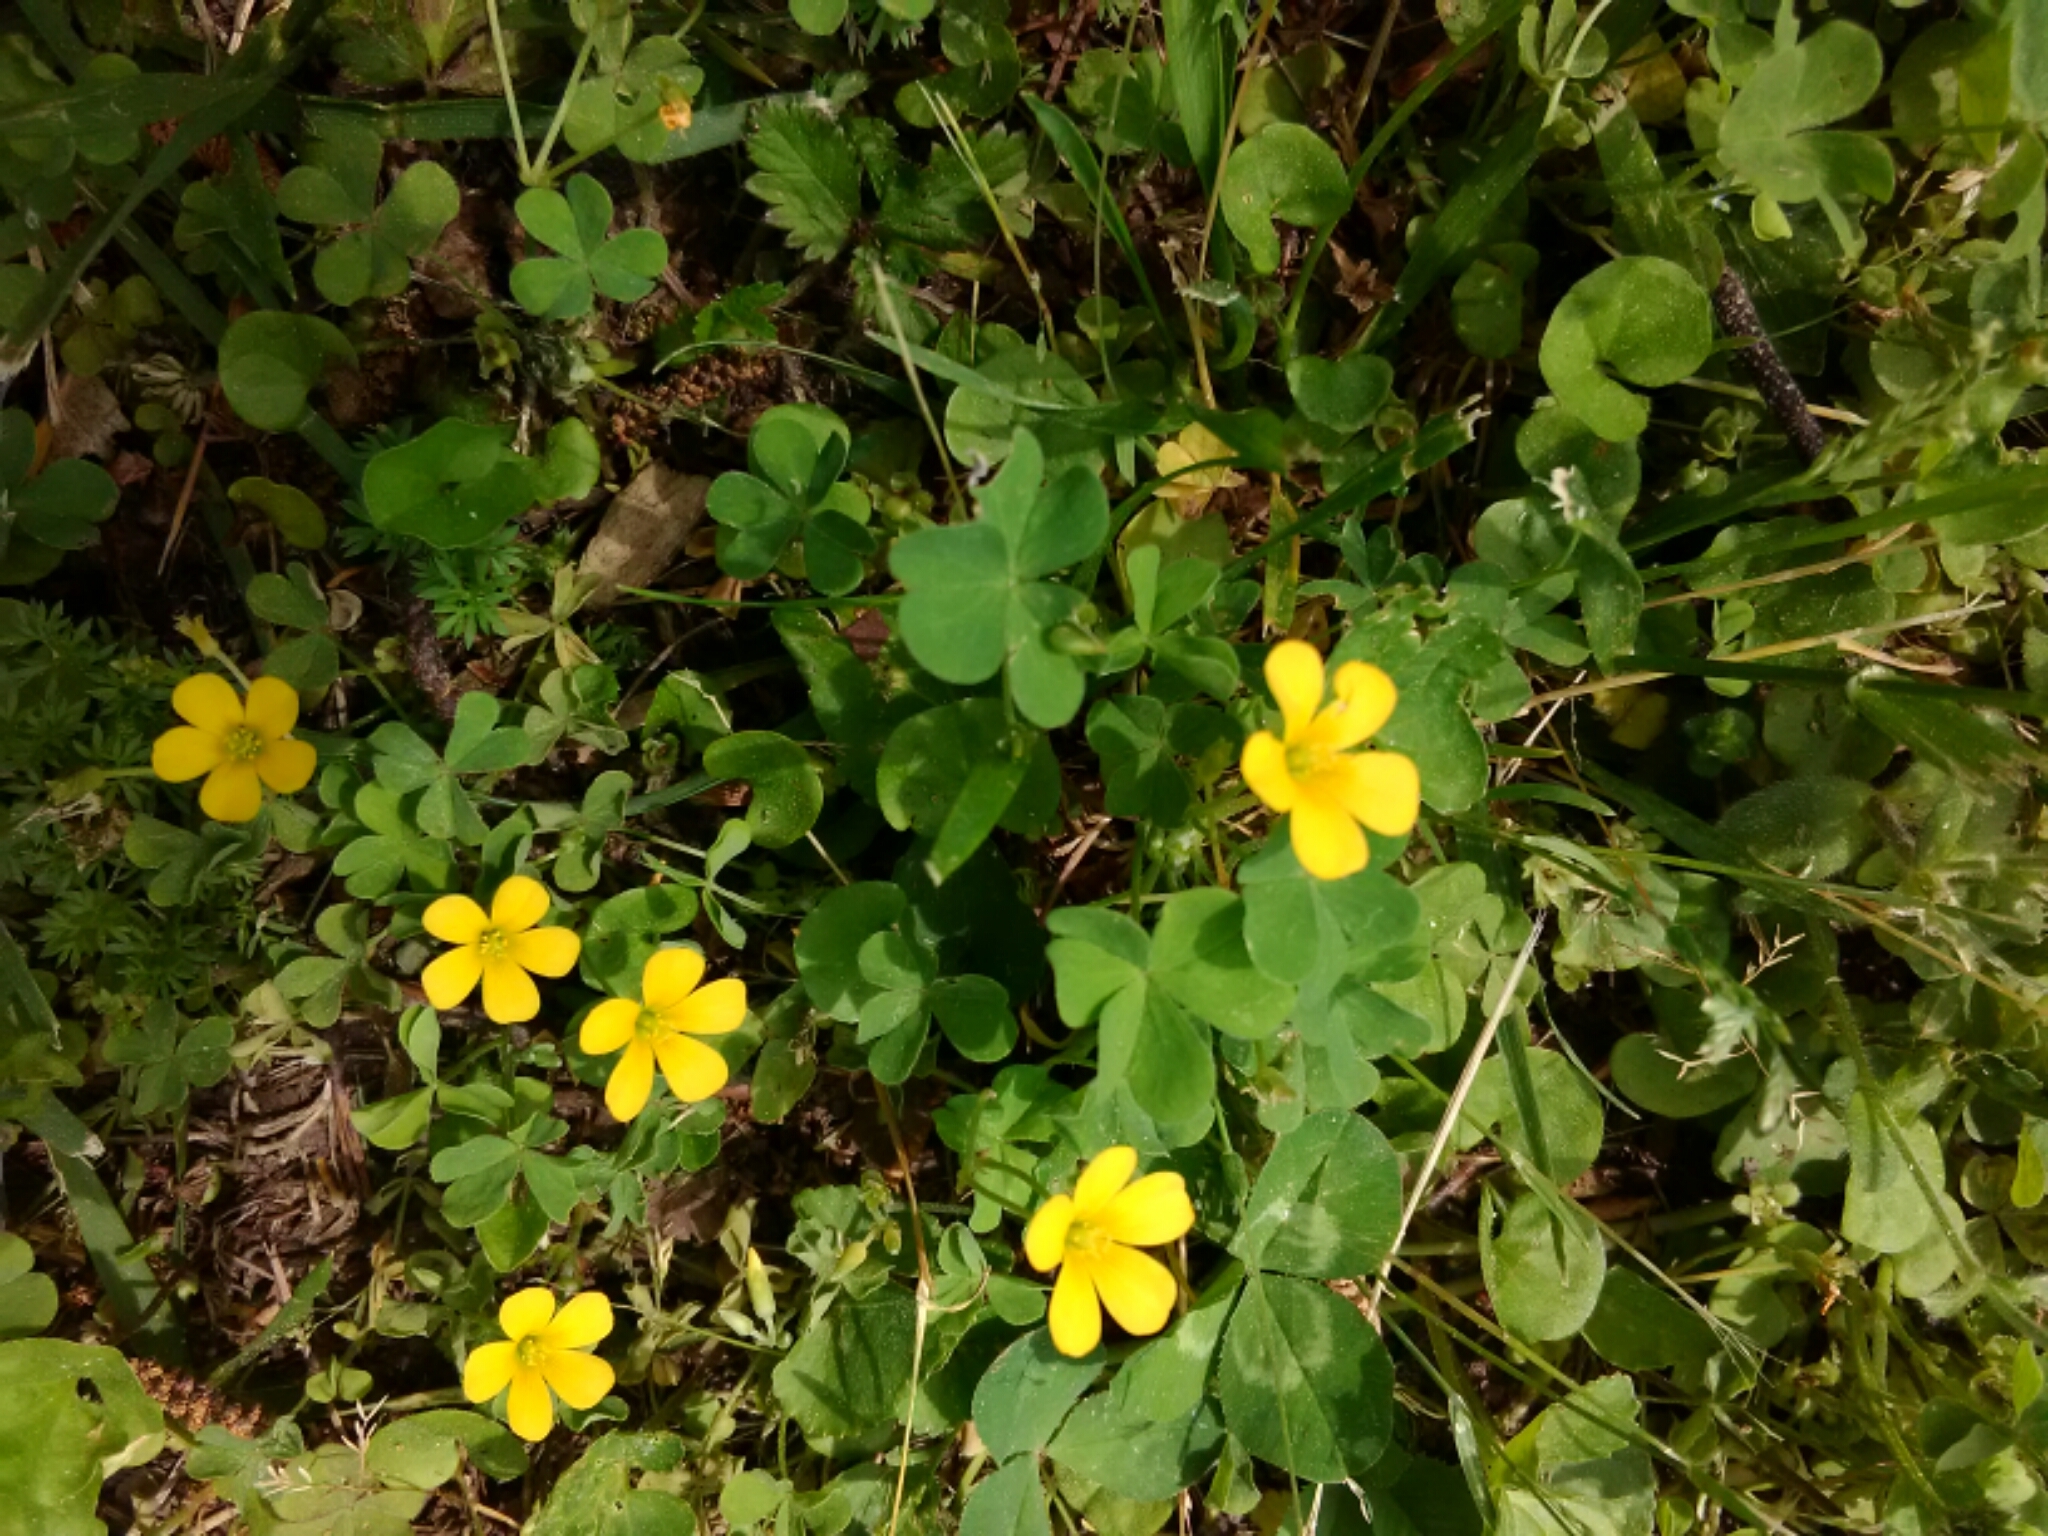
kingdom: Plantae
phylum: Tracheophyta
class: Magnoliopsida
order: Oxalidales
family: Oxalidaceae
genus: Oxalis
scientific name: Oxalis corniculata
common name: Procumbent yellow-sorrel
